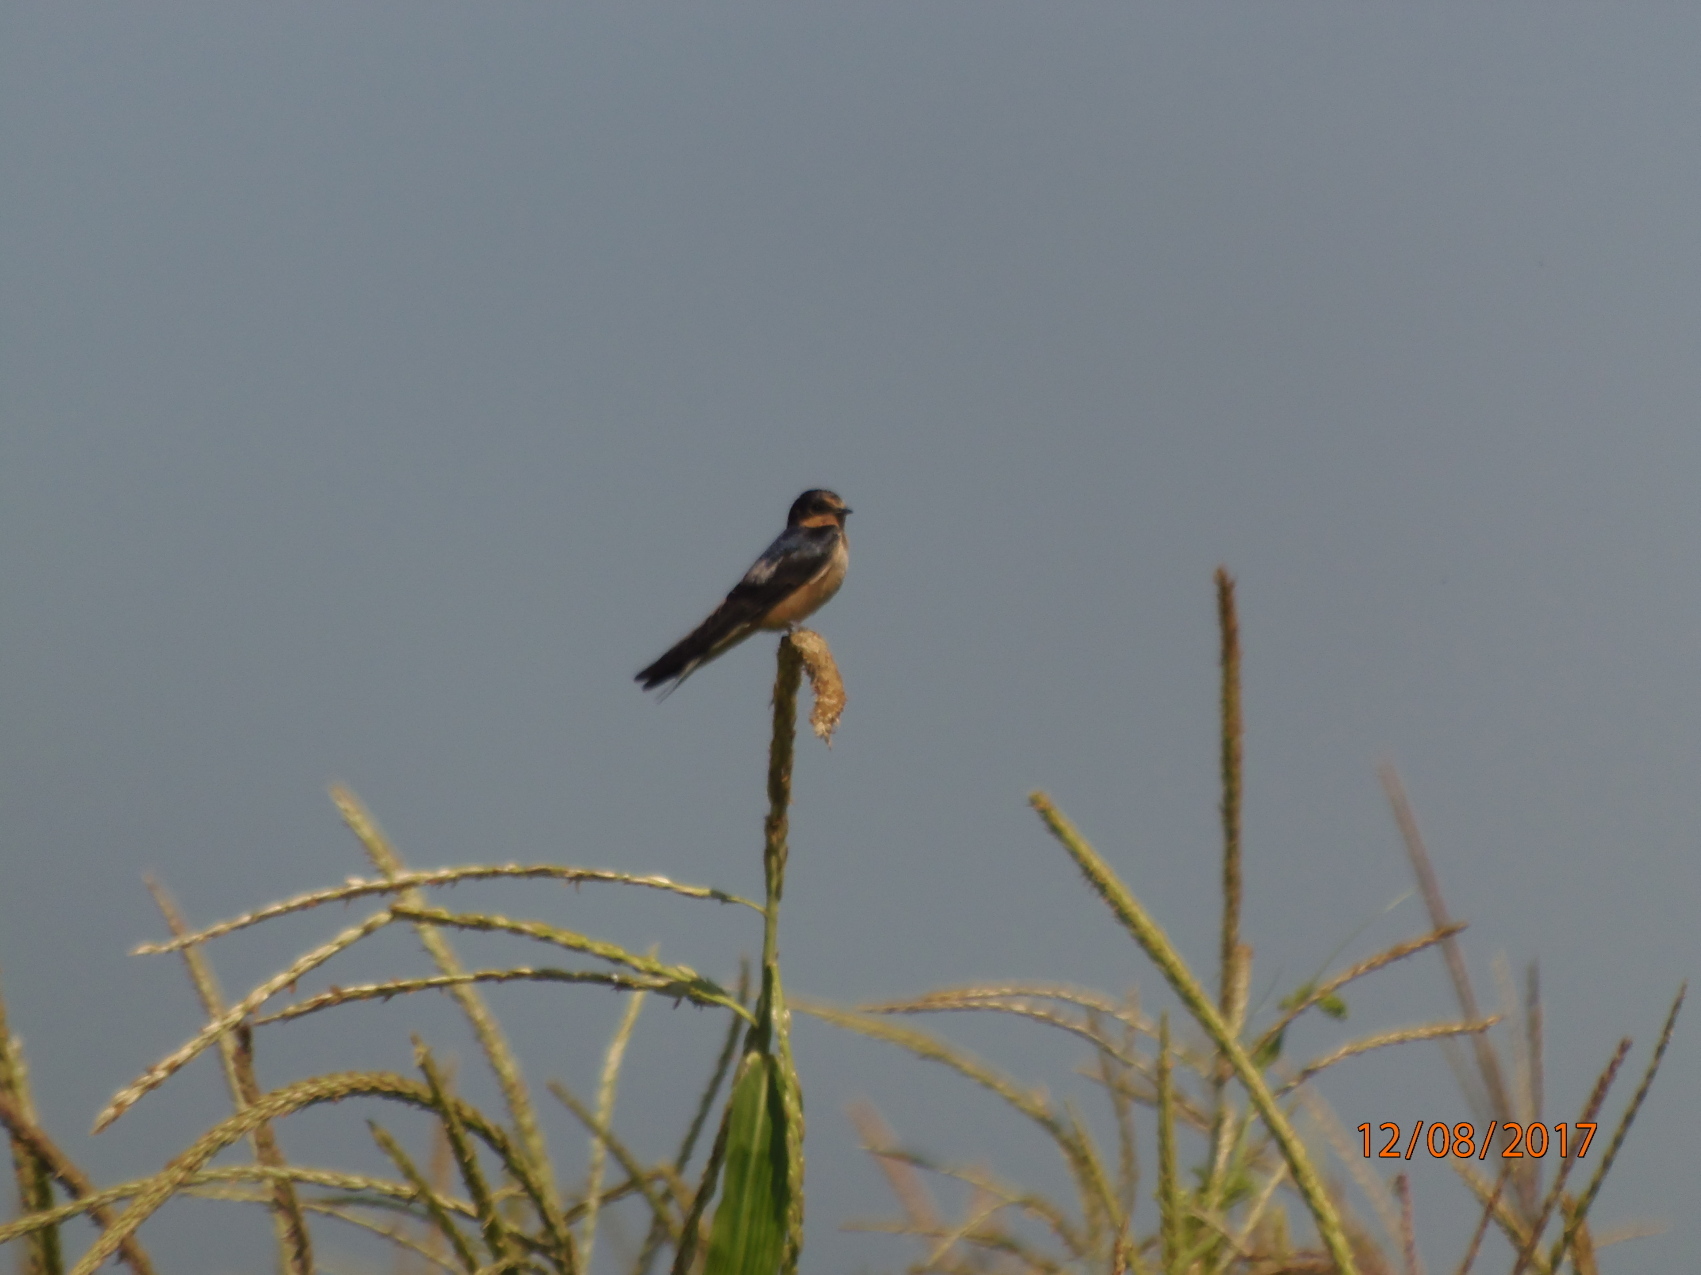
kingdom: Animalia
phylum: Chordata
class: Aves
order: Passeriformes
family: Hirundinidae
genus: Hirundo
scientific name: Hirundo rustica
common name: Barn swallow
